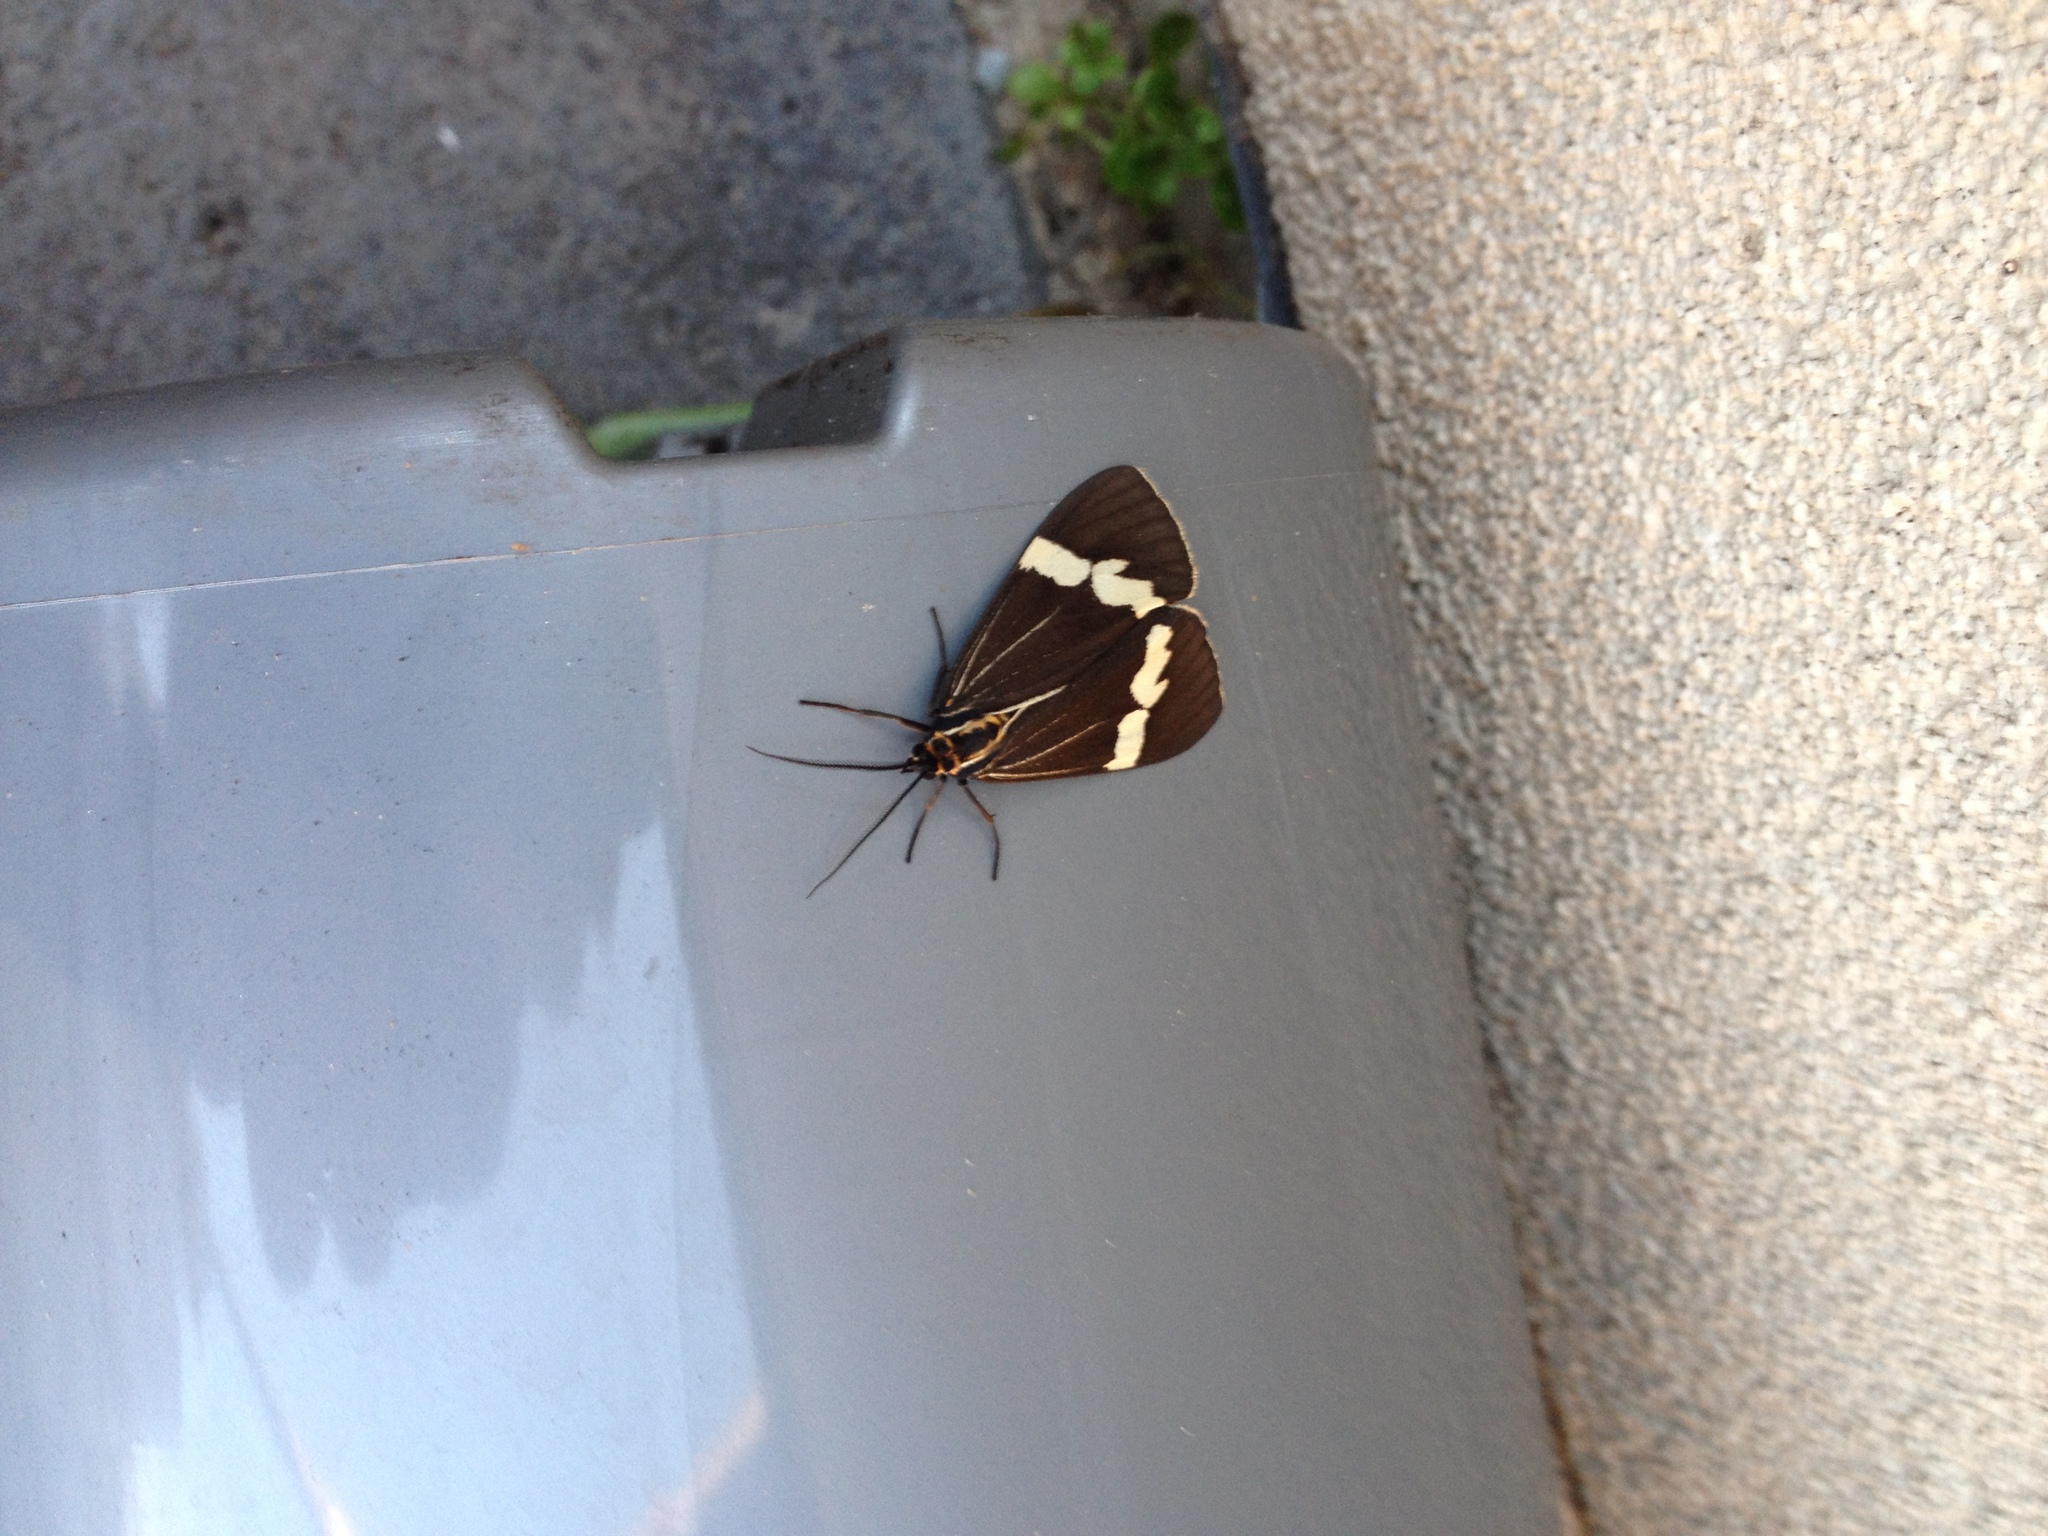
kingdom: Animalia
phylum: Arthropoda
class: Insecta
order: Lepidoptera
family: Erebidae
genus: Nyctemera
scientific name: Nyctemera amicus
